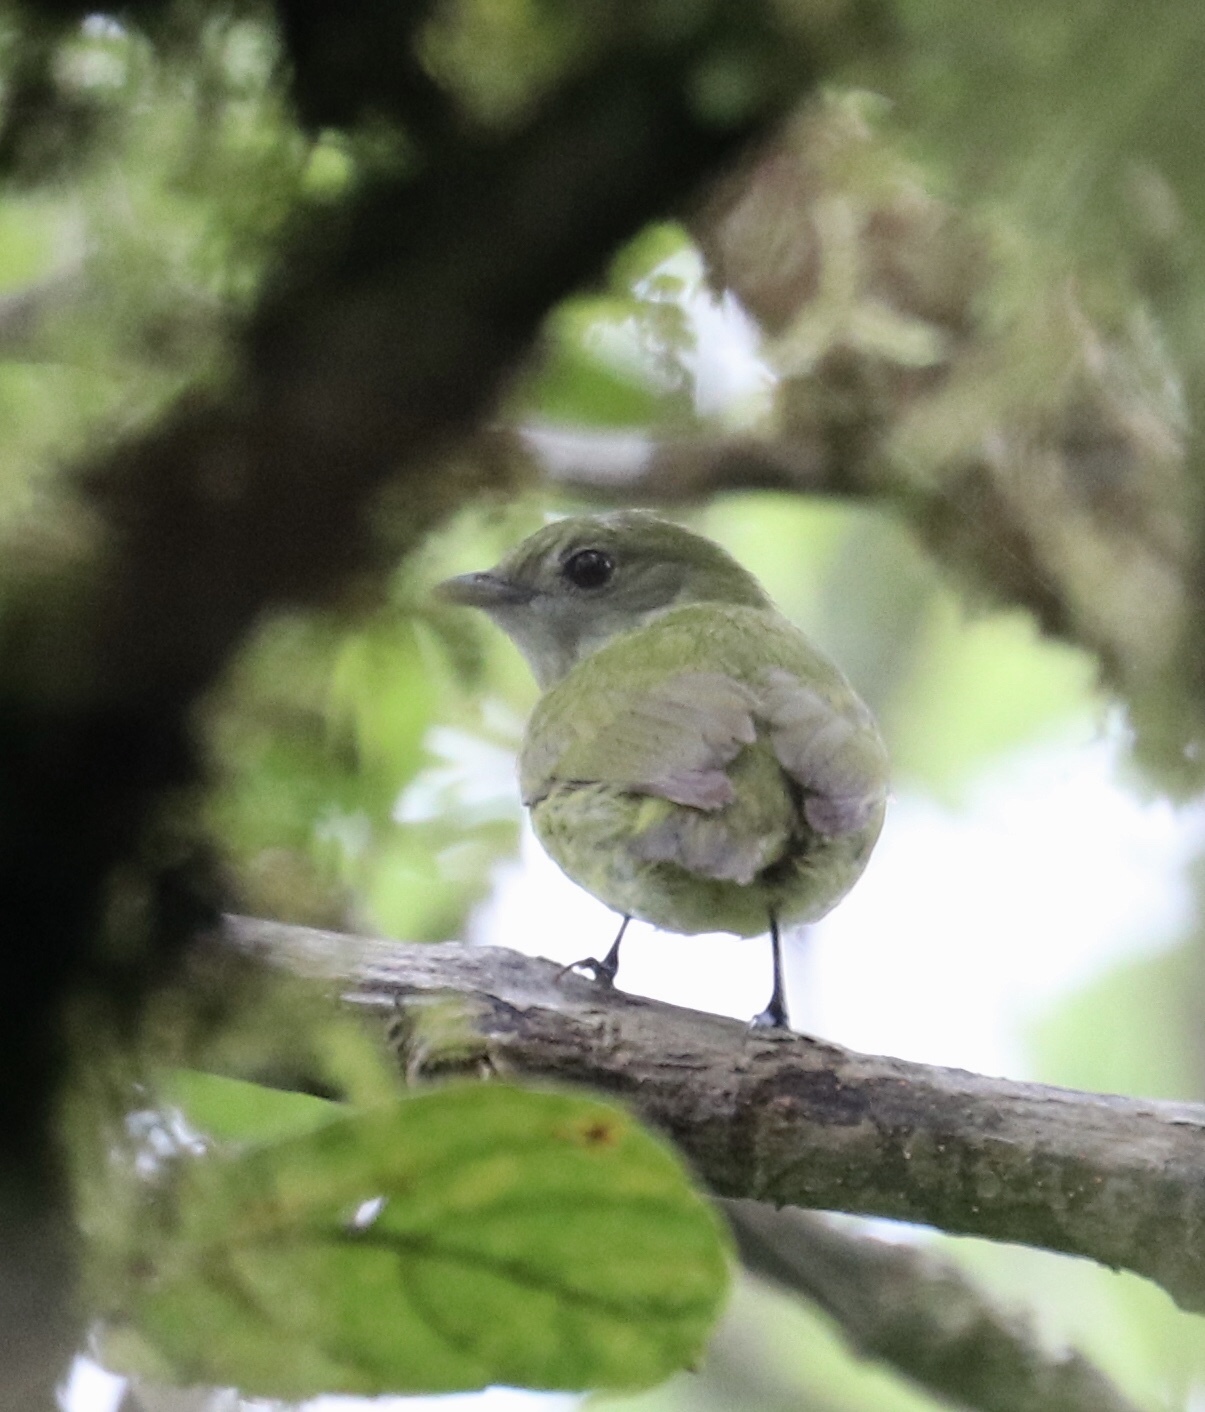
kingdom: Animalia
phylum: Chordata
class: Aves
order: Passeriformes
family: Pipridae
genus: Corapipo
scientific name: Corapipo altera
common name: White-ruffed manakin
